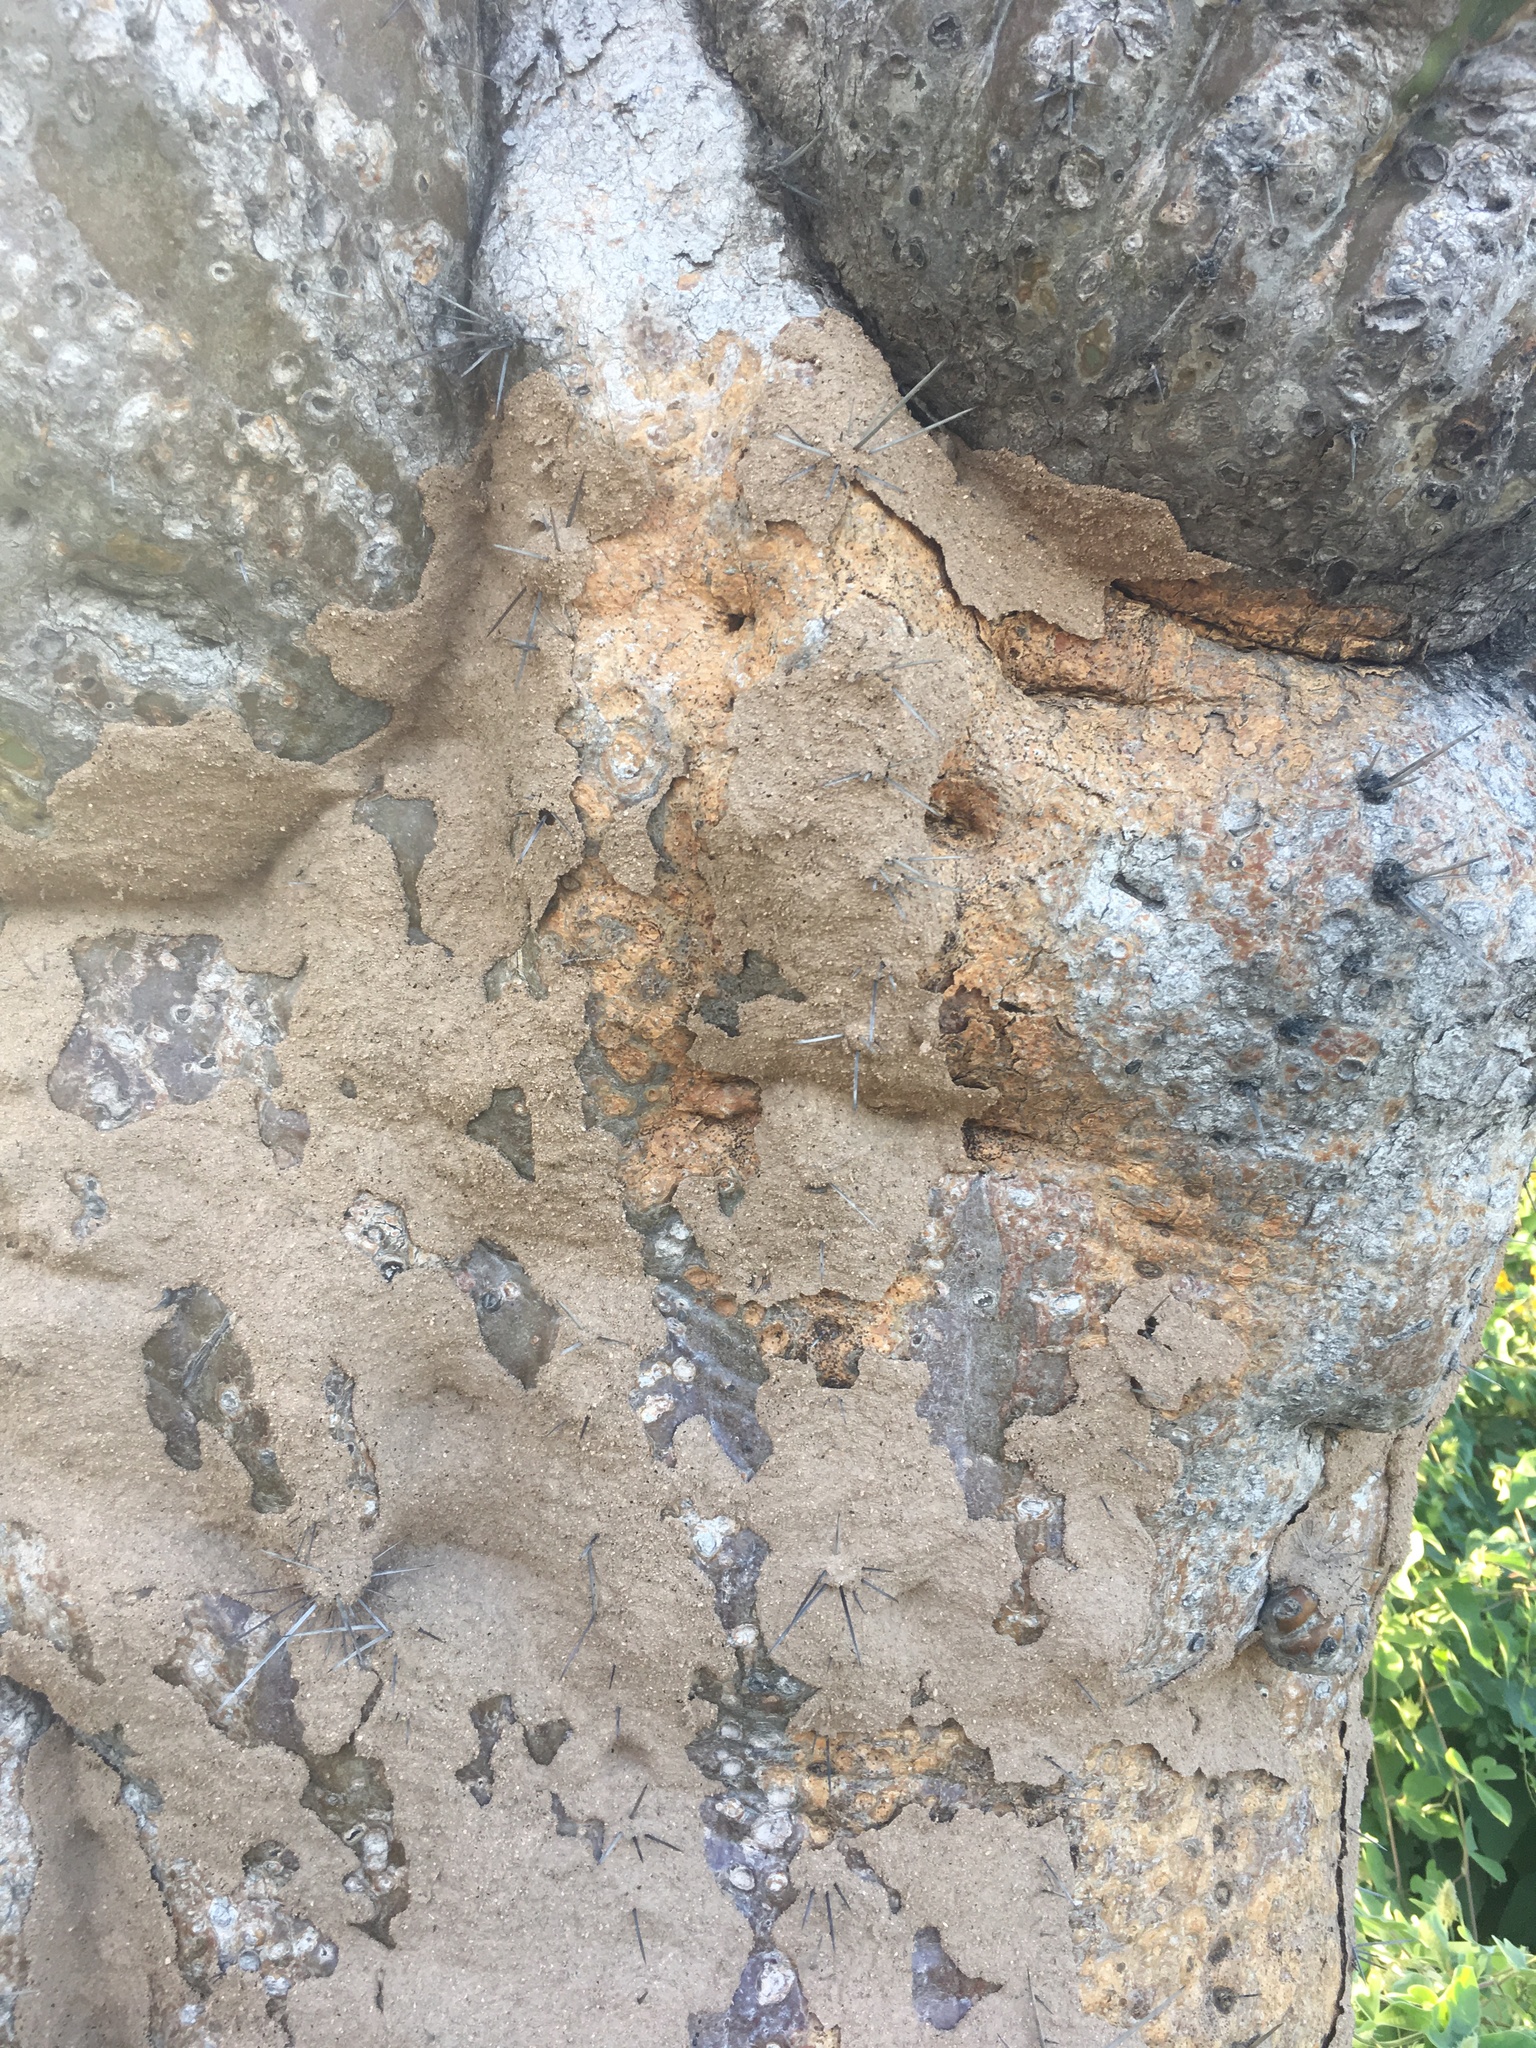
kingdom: Plantae
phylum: Tracheophyta
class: Magnoliopsida
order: Caryophyllales
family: Cactaceae
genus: Pachycereus
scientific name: Pachycereus pringlei
